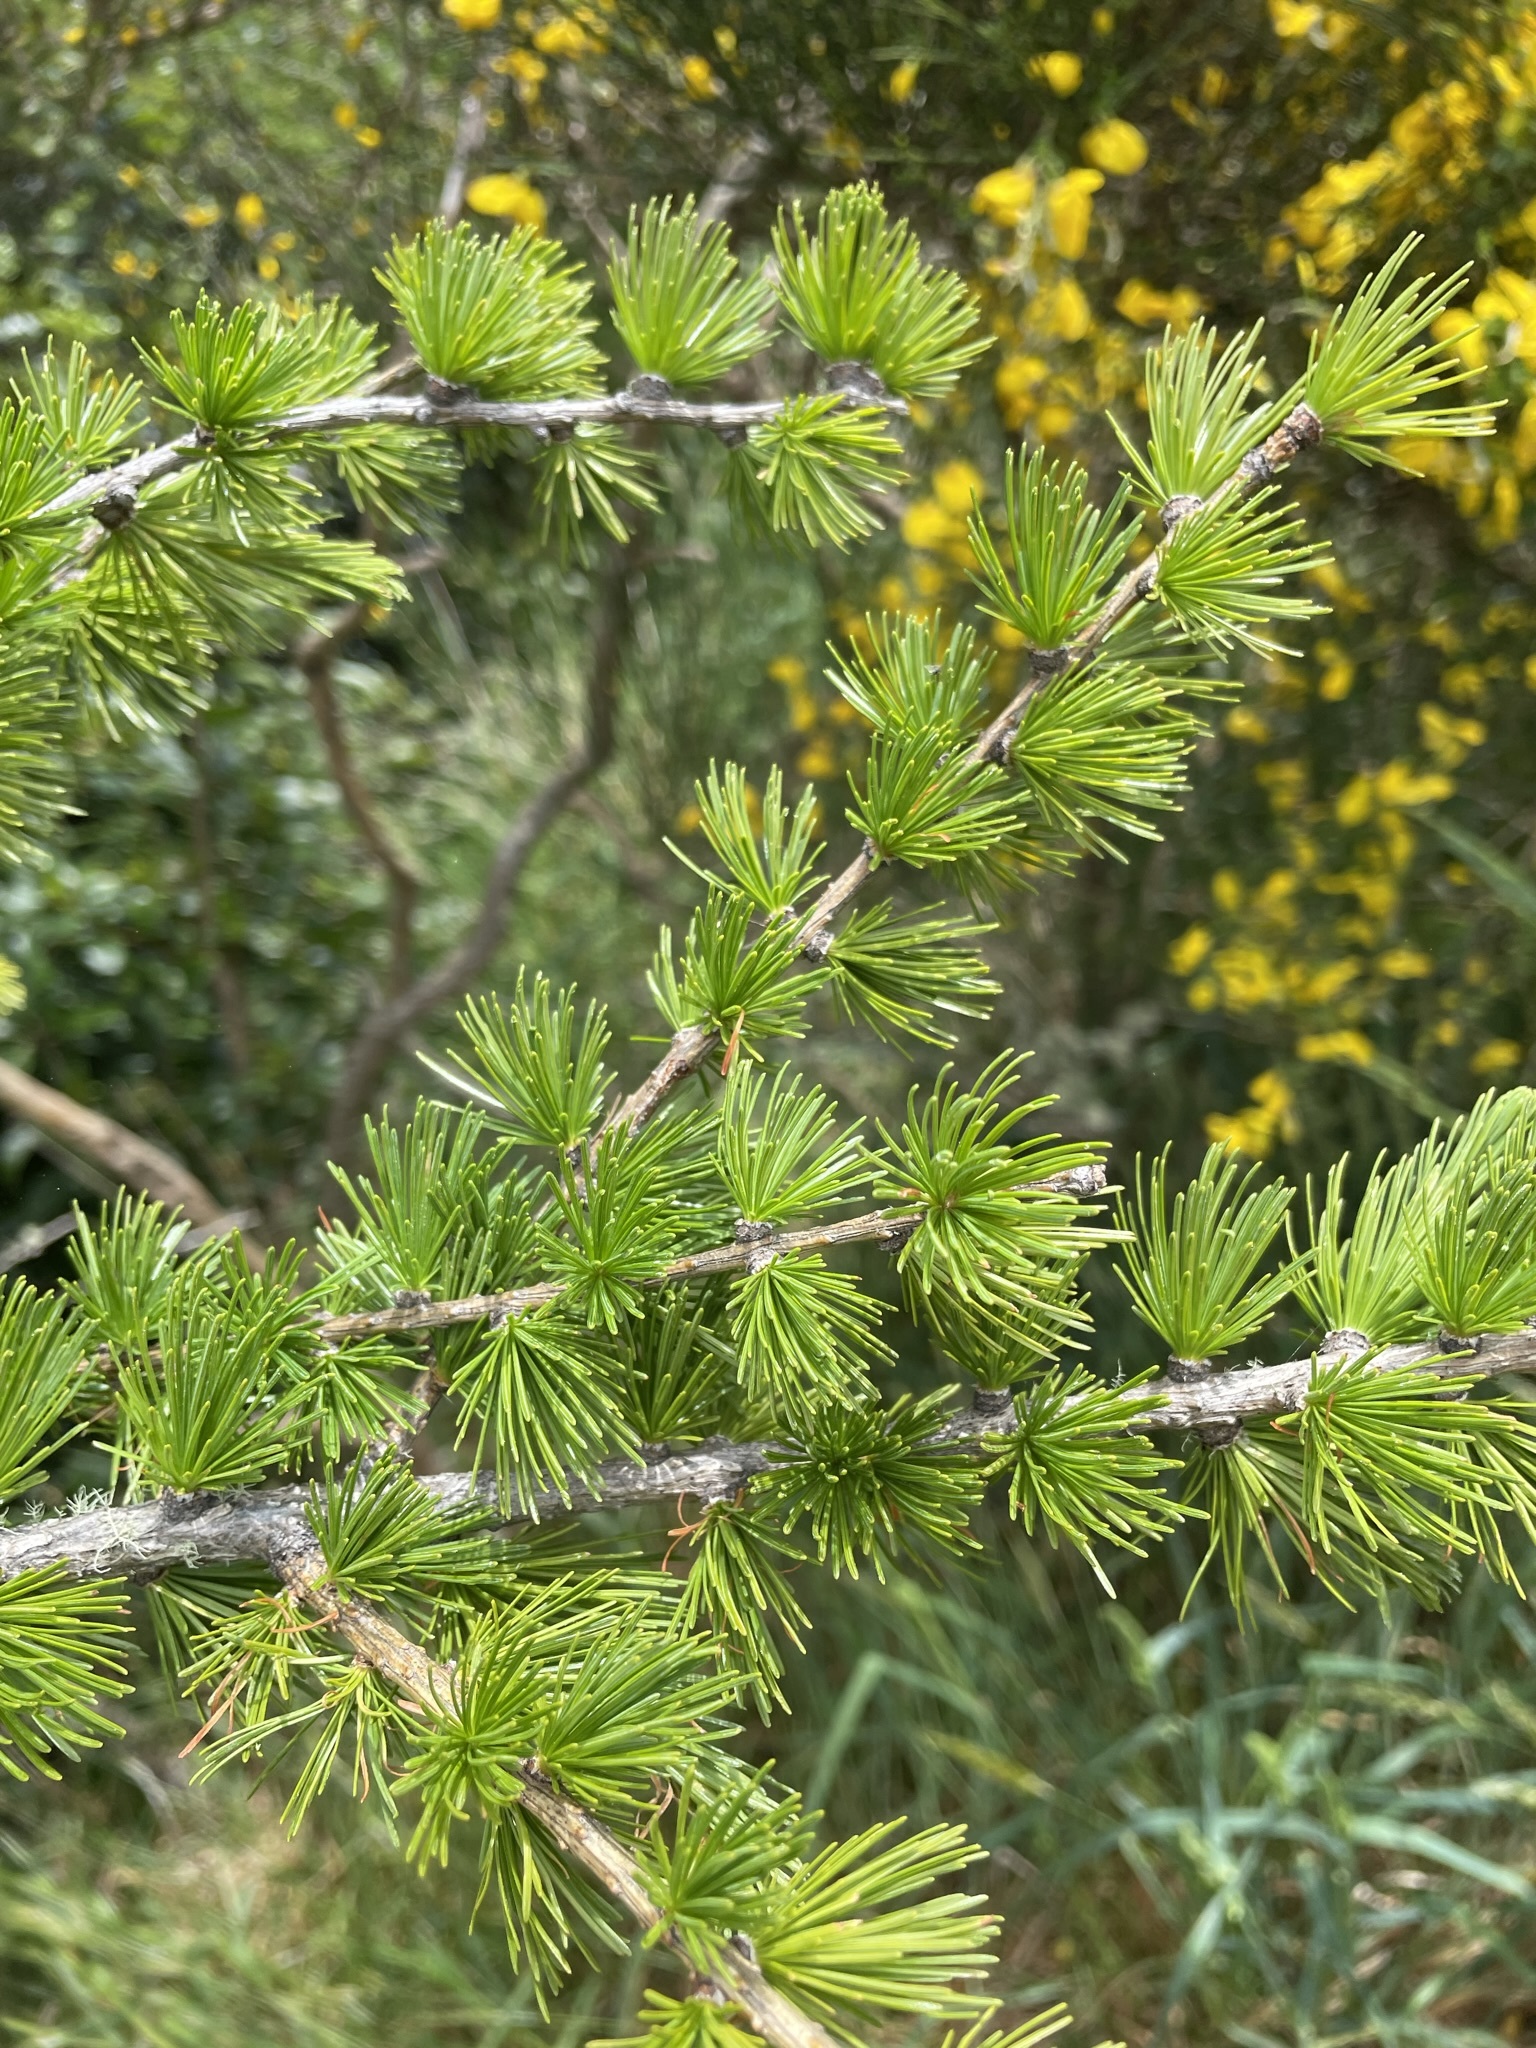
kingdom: Plantae
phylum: Tracheophyta
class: Pinopsida
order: Pinales
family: Pinaceae
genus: Larix
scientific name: Larix decidua
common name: European larch
